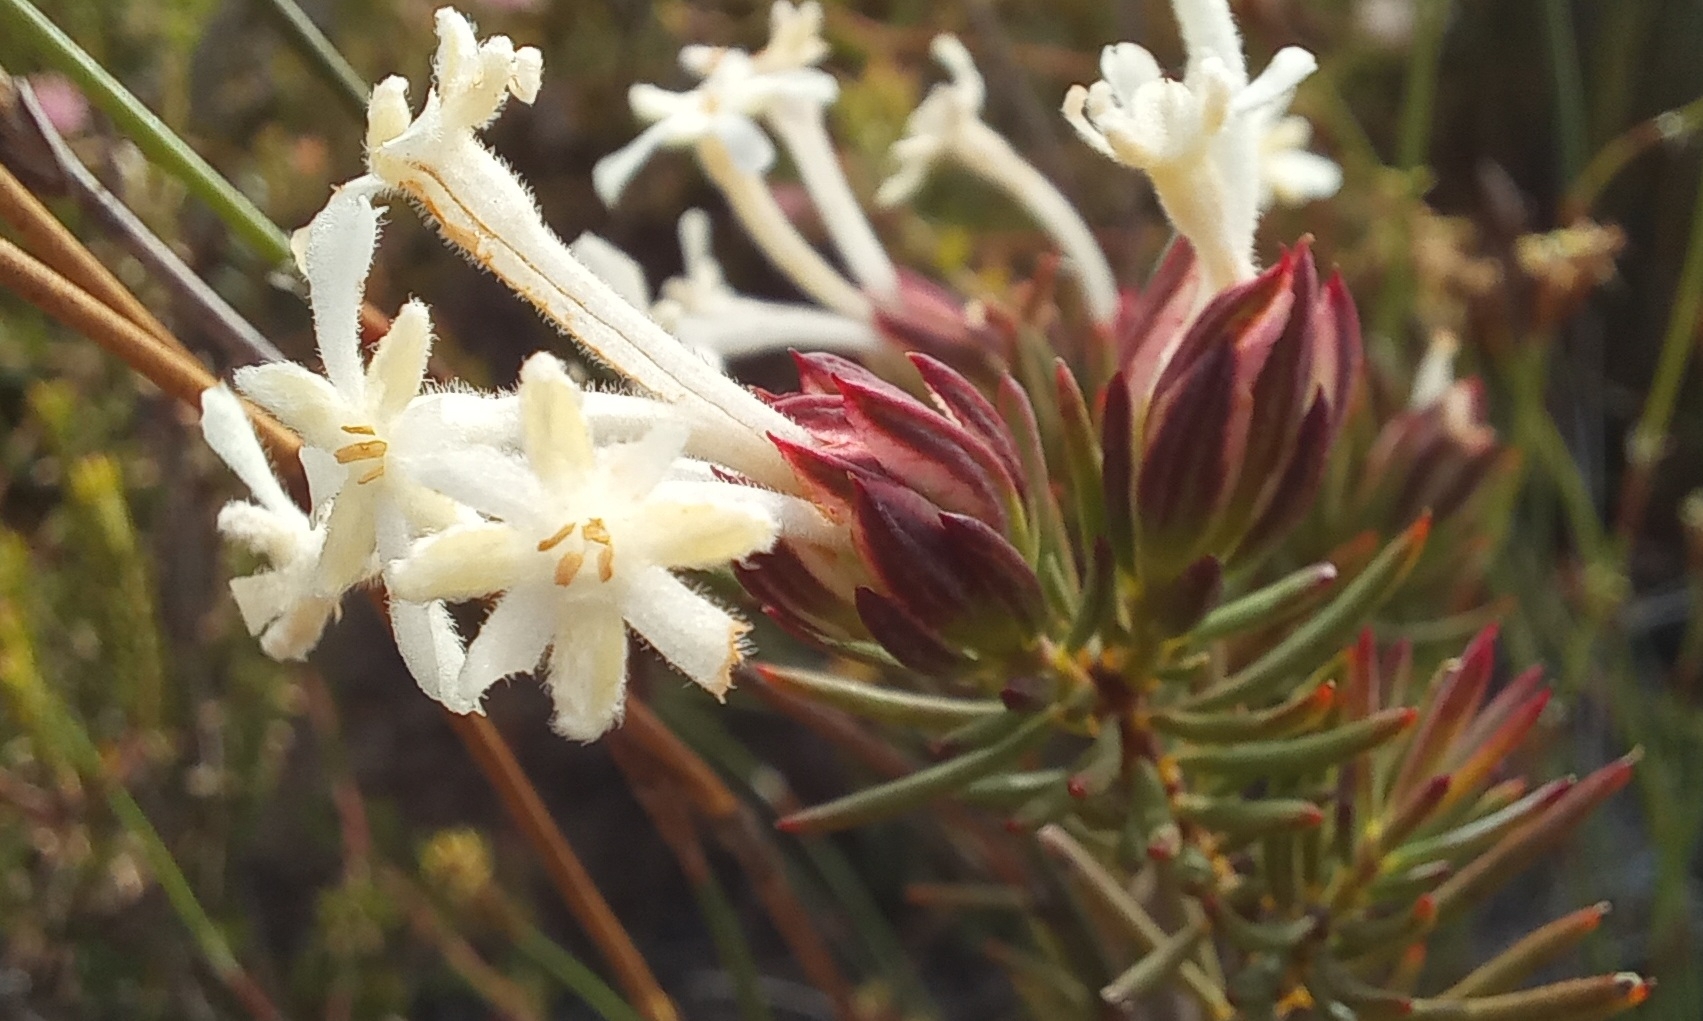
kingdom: Plantae
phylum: Tracheophyta
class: Magnoliopsida
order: Malvales
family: Thymelaeaceae
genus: Gnidia
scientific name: Gnidia pinifolia
